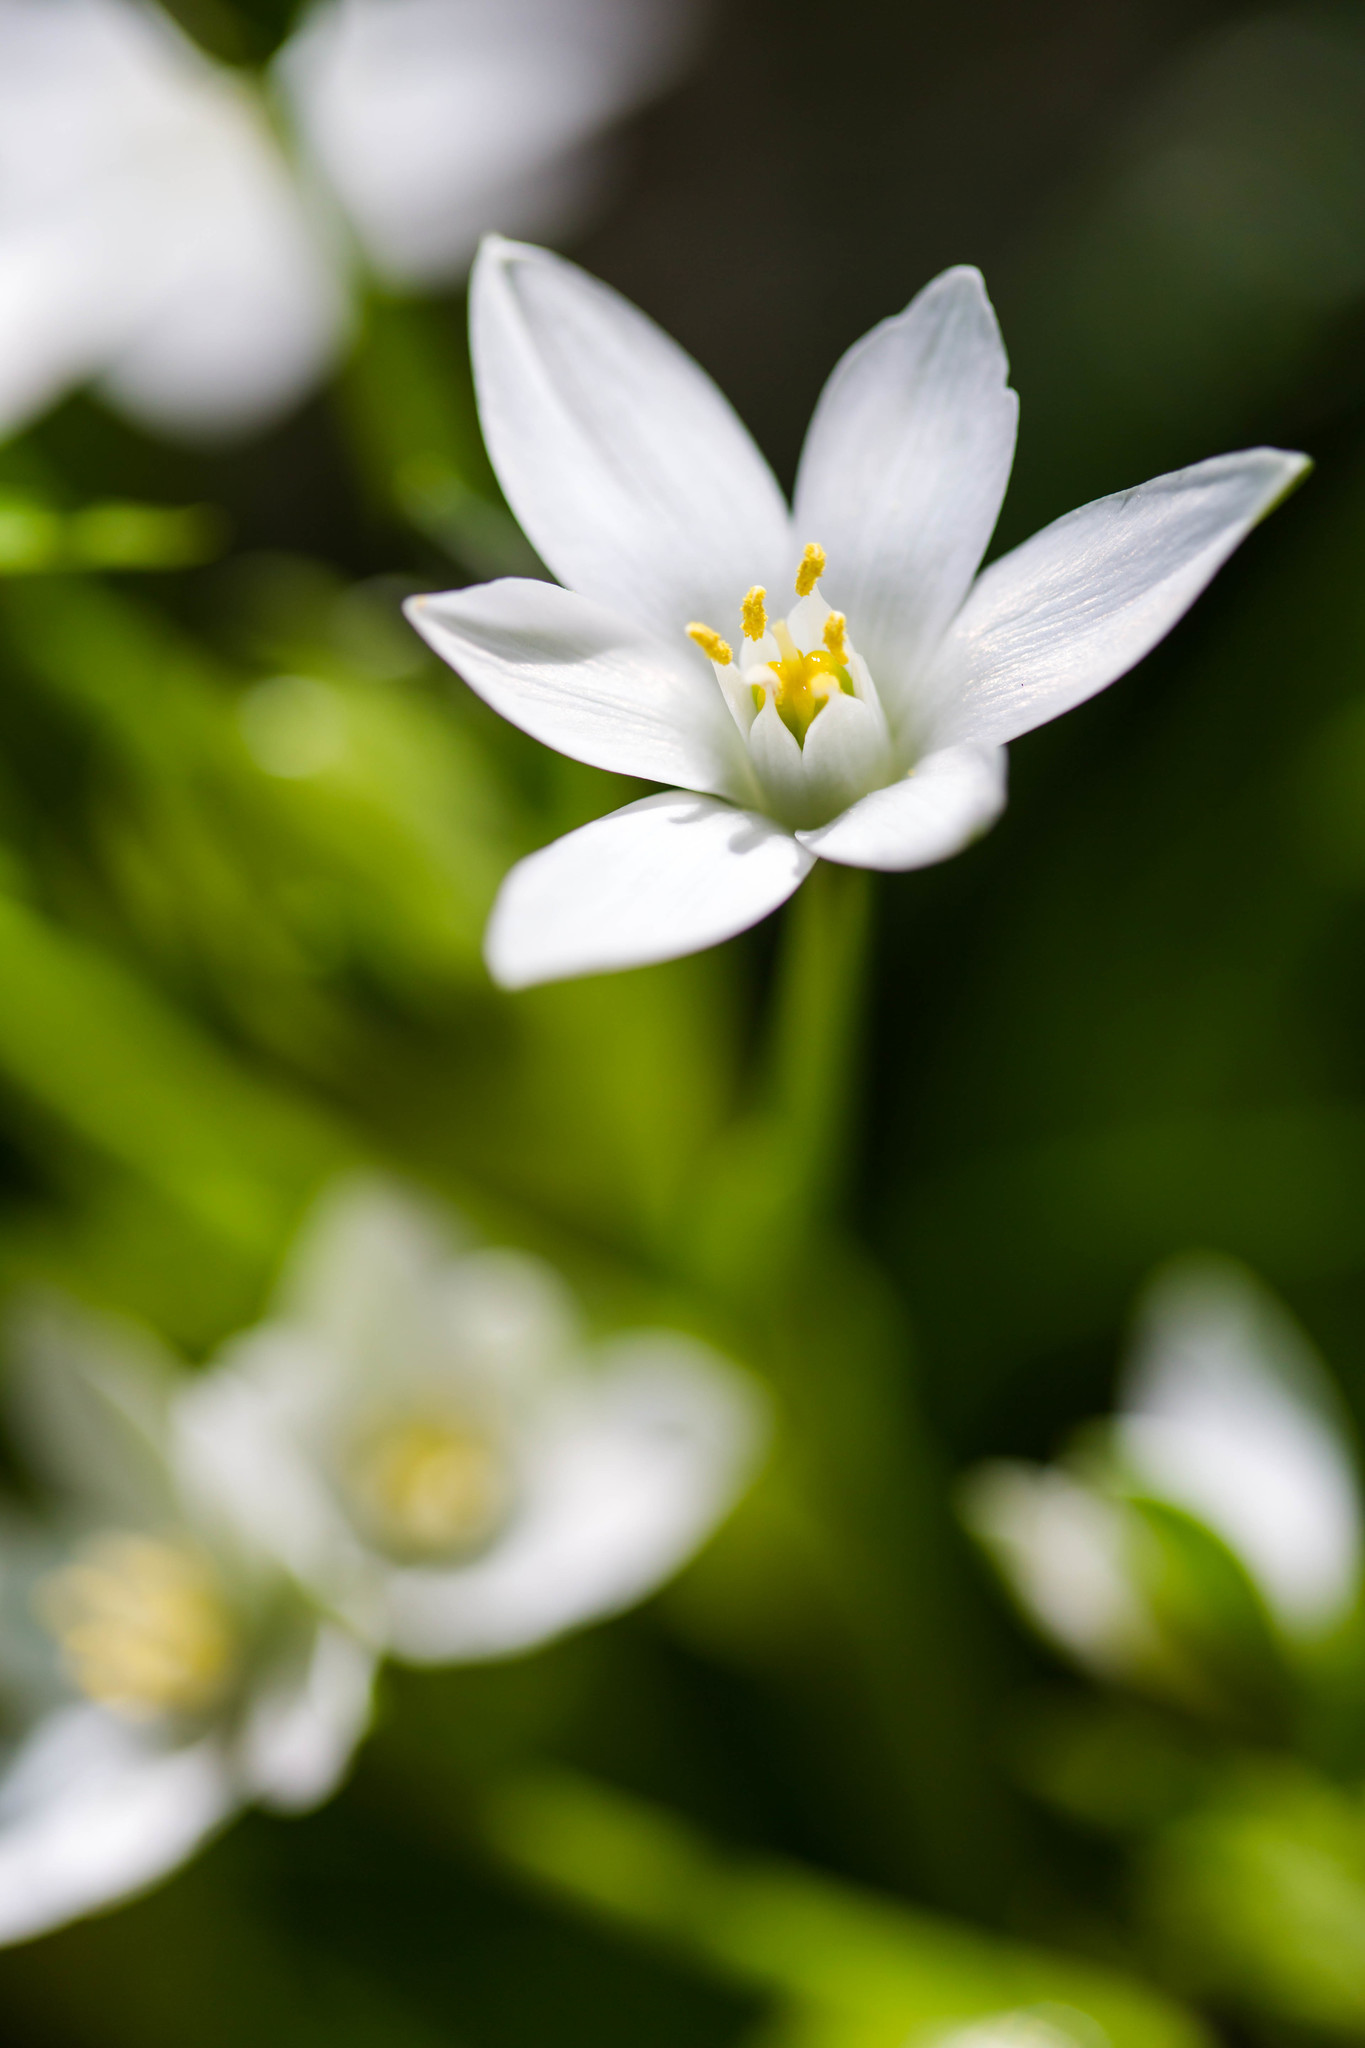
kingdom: Plantae
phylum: Tracheophyta
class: Liliopsida
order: Asparagales
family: Asparagaceae
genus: Ornithogalum
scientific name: Ornithogalum umbellatum
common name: Garden star-of-bethlehem
